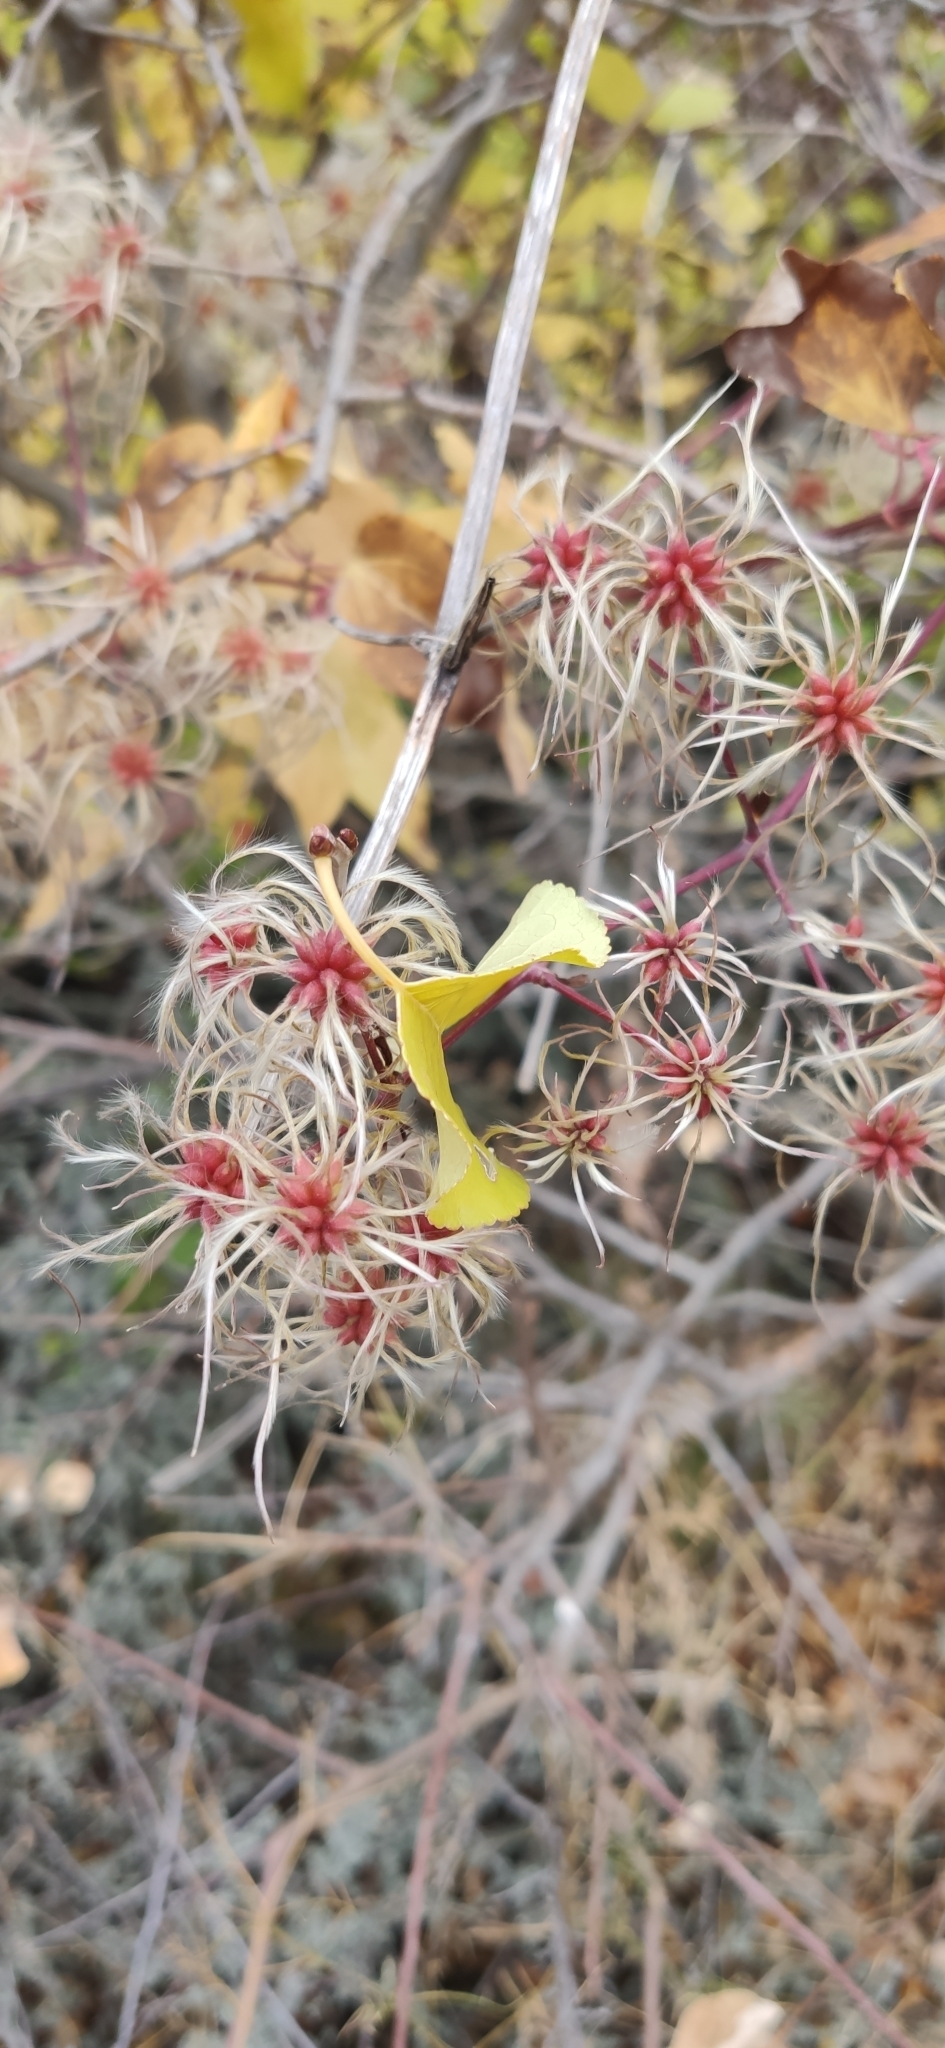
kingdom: Plantae
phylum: Tracheophyta
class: Magnoliopsida
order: Ranunculales
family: Ranunculaceae
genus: Clematis
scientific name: Clematis vitalba
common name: Evergreen clematis
